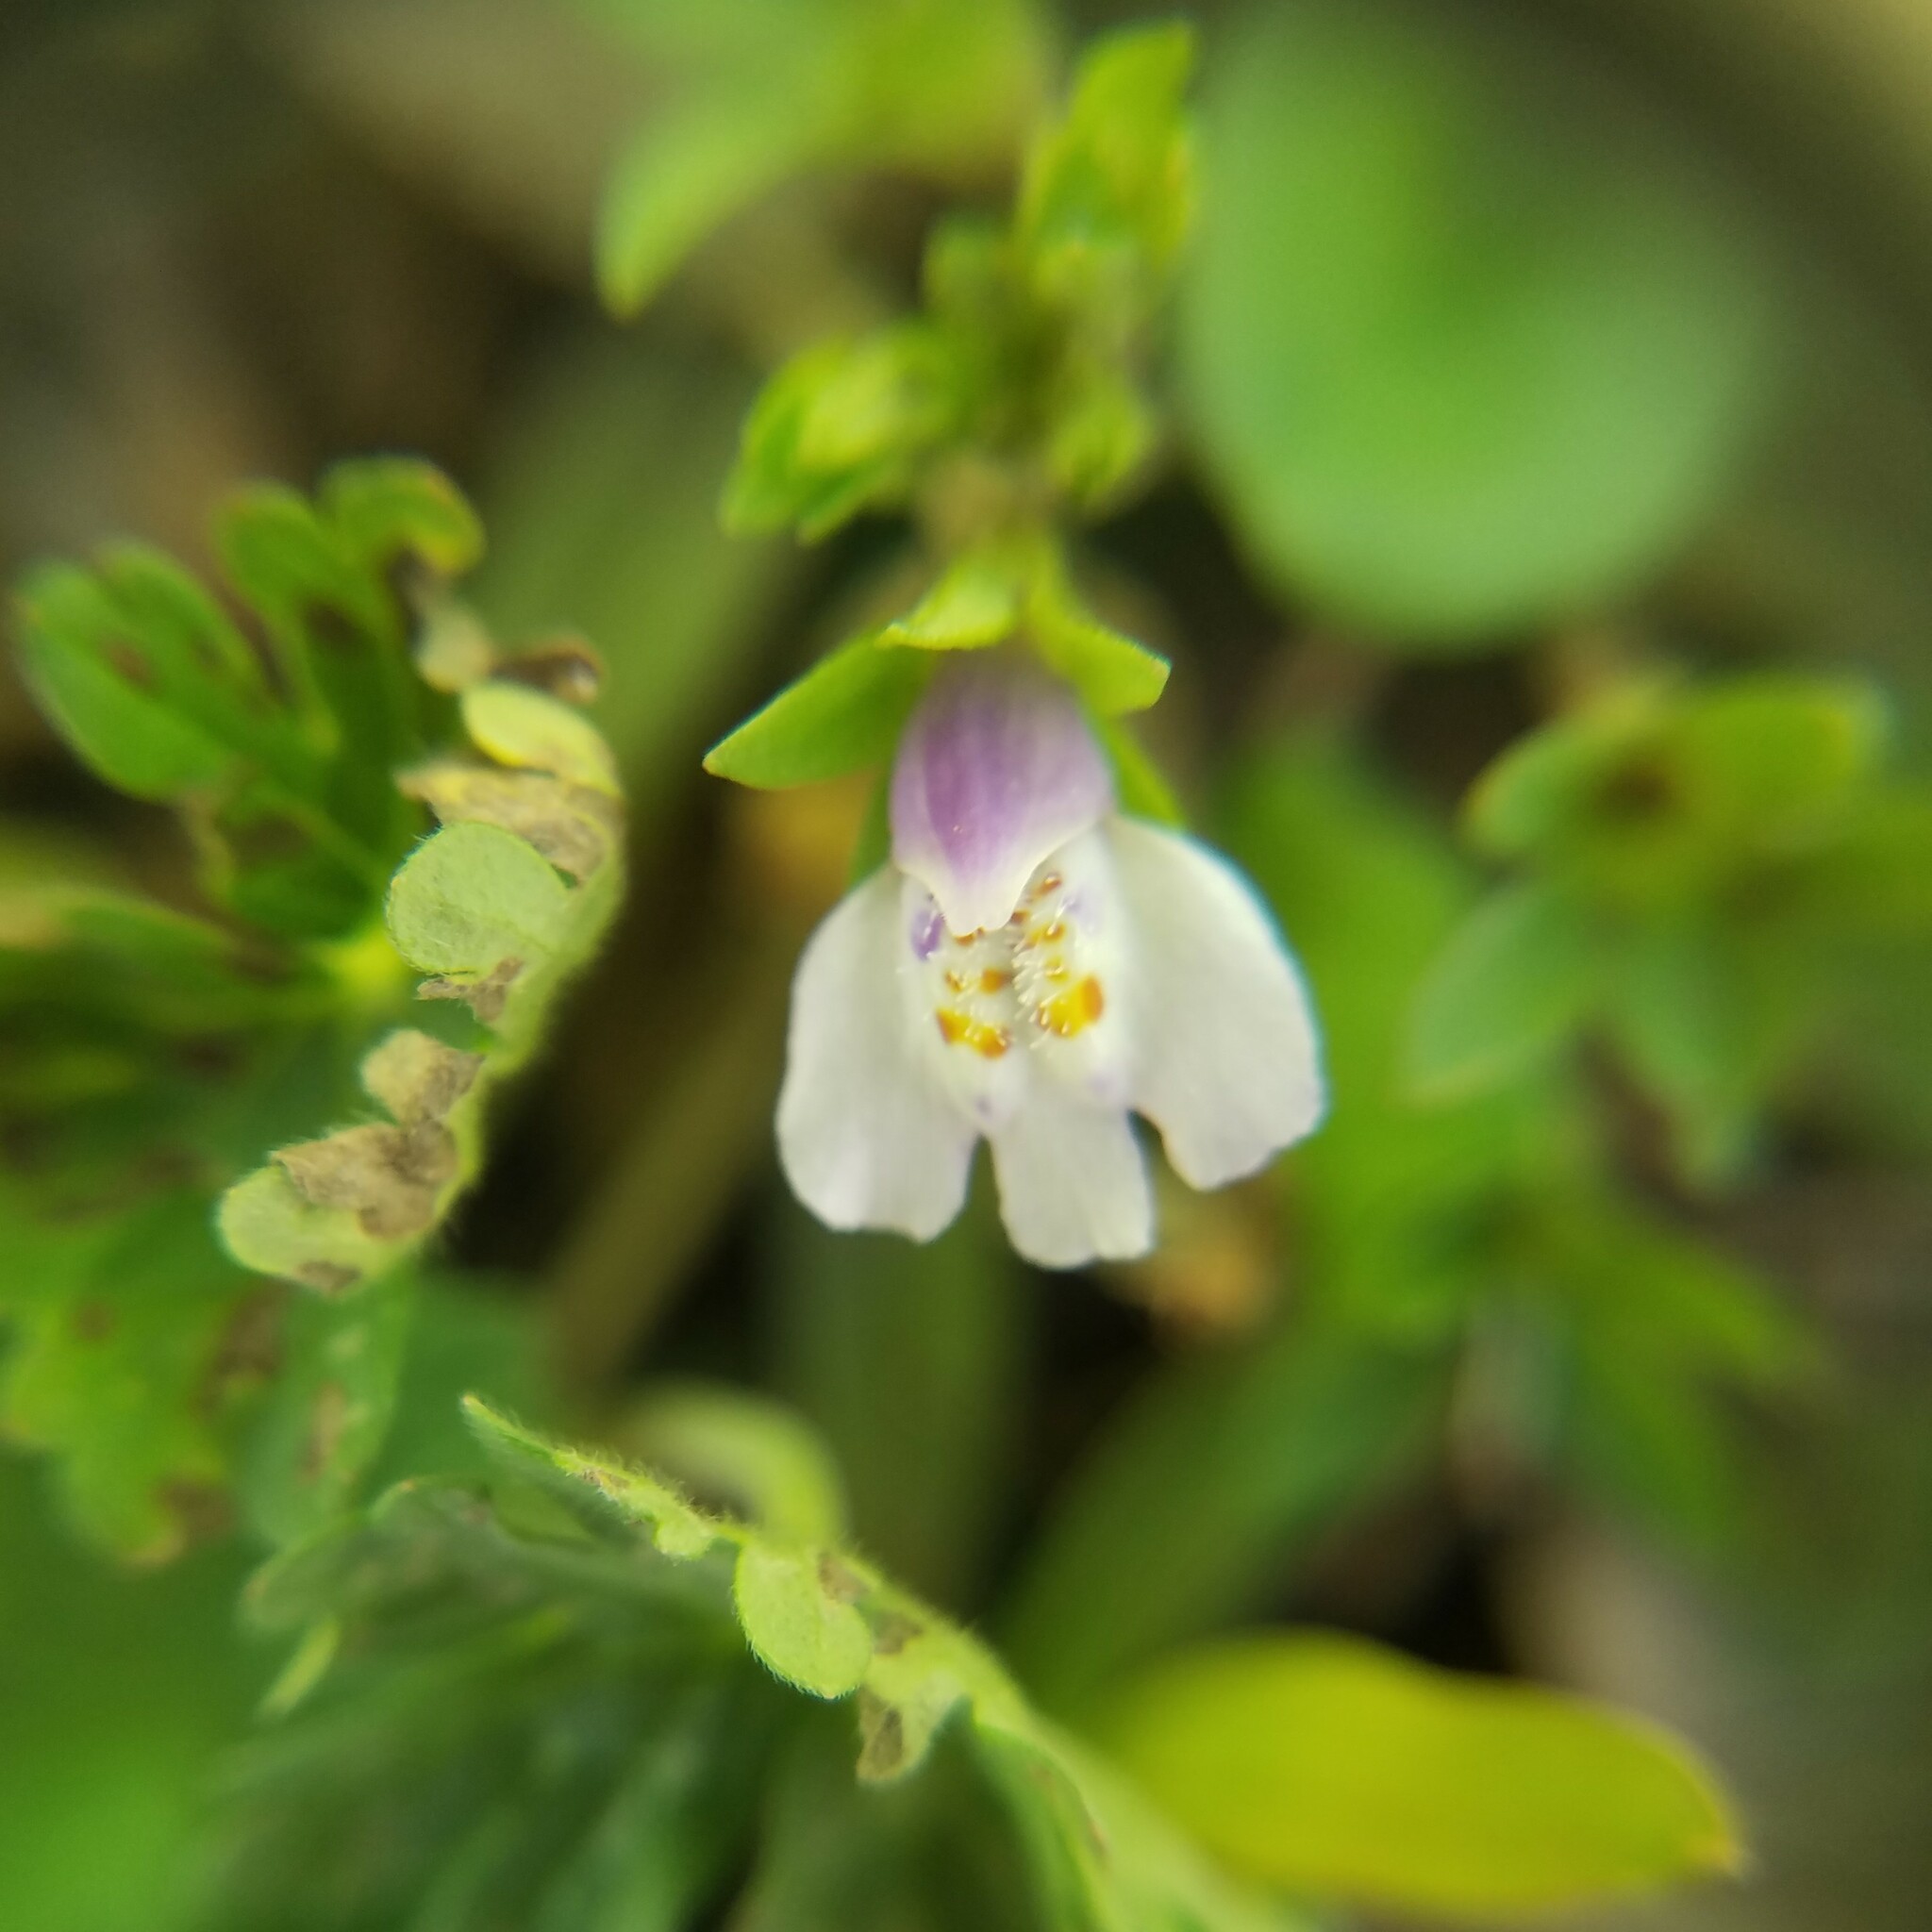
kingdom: Plantae
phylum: Tracheophyta
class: Magnoliopsida
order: Lamiales
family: Mazaceae
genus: Mazus
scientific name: Mazus pumilus
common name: Japanese mazus
